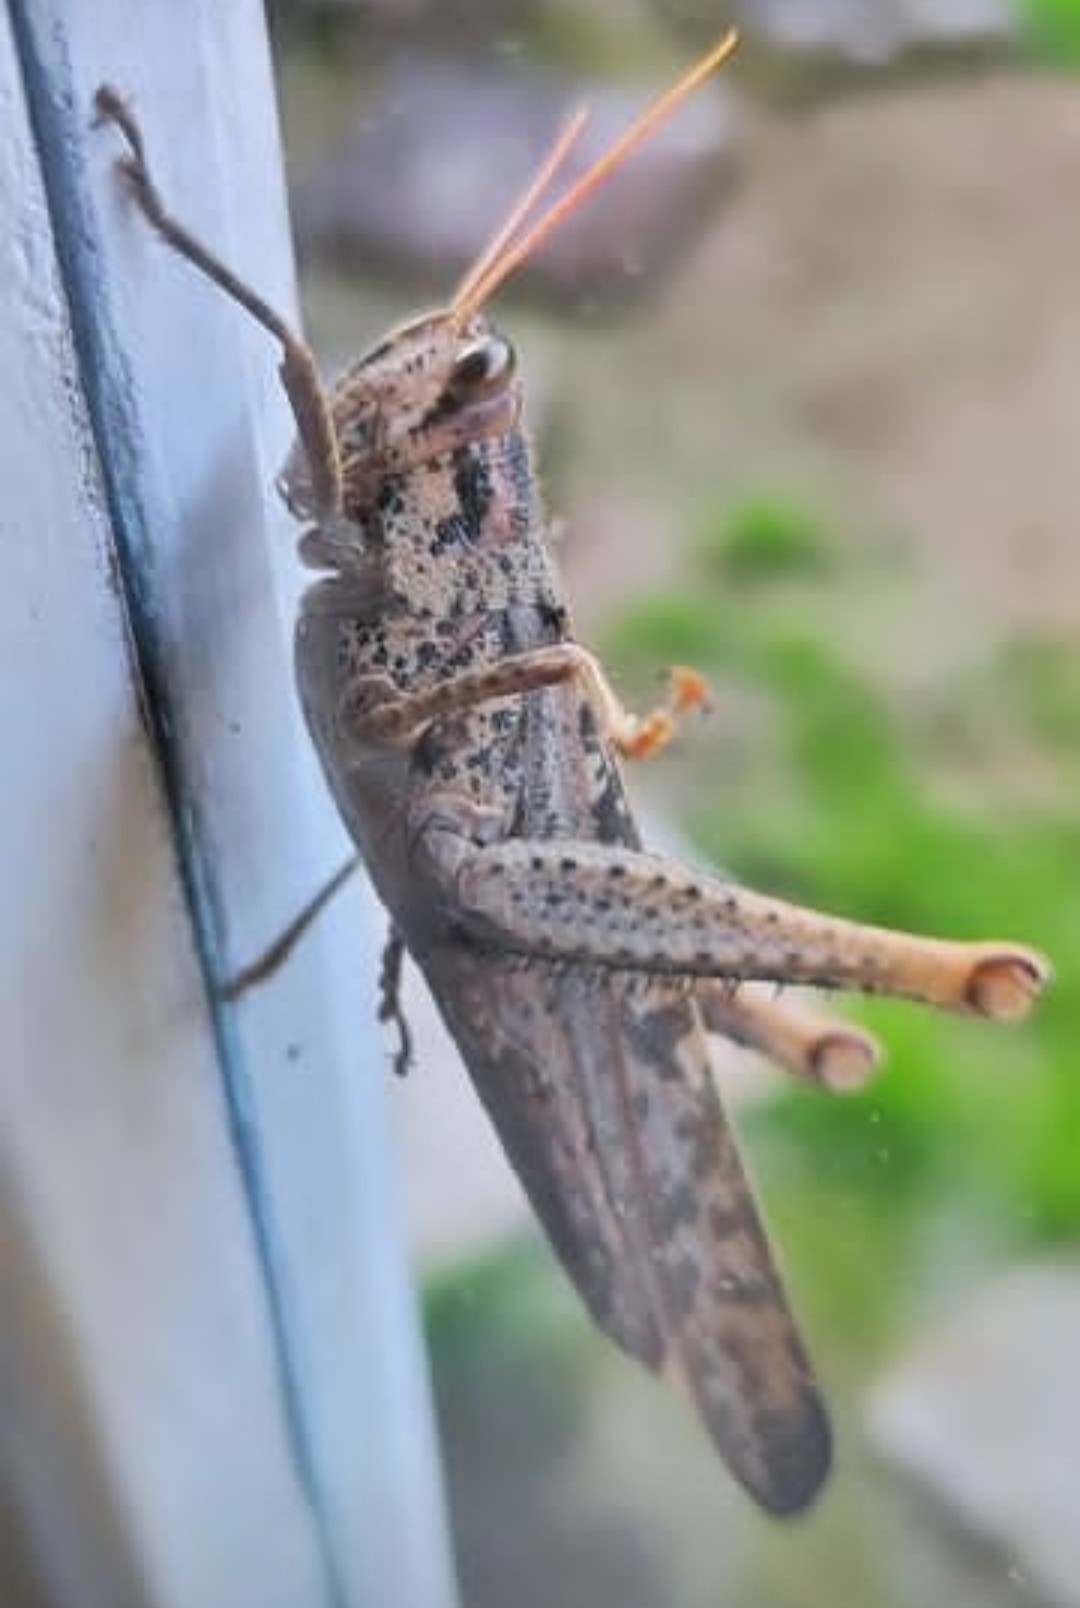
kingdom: Animalia
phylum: Arthropoda
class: Insecta
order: Orthoptera
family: Acrididae
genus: Schistocerca
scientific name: Schistocerca nitens
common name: Vagrant grasshopper
